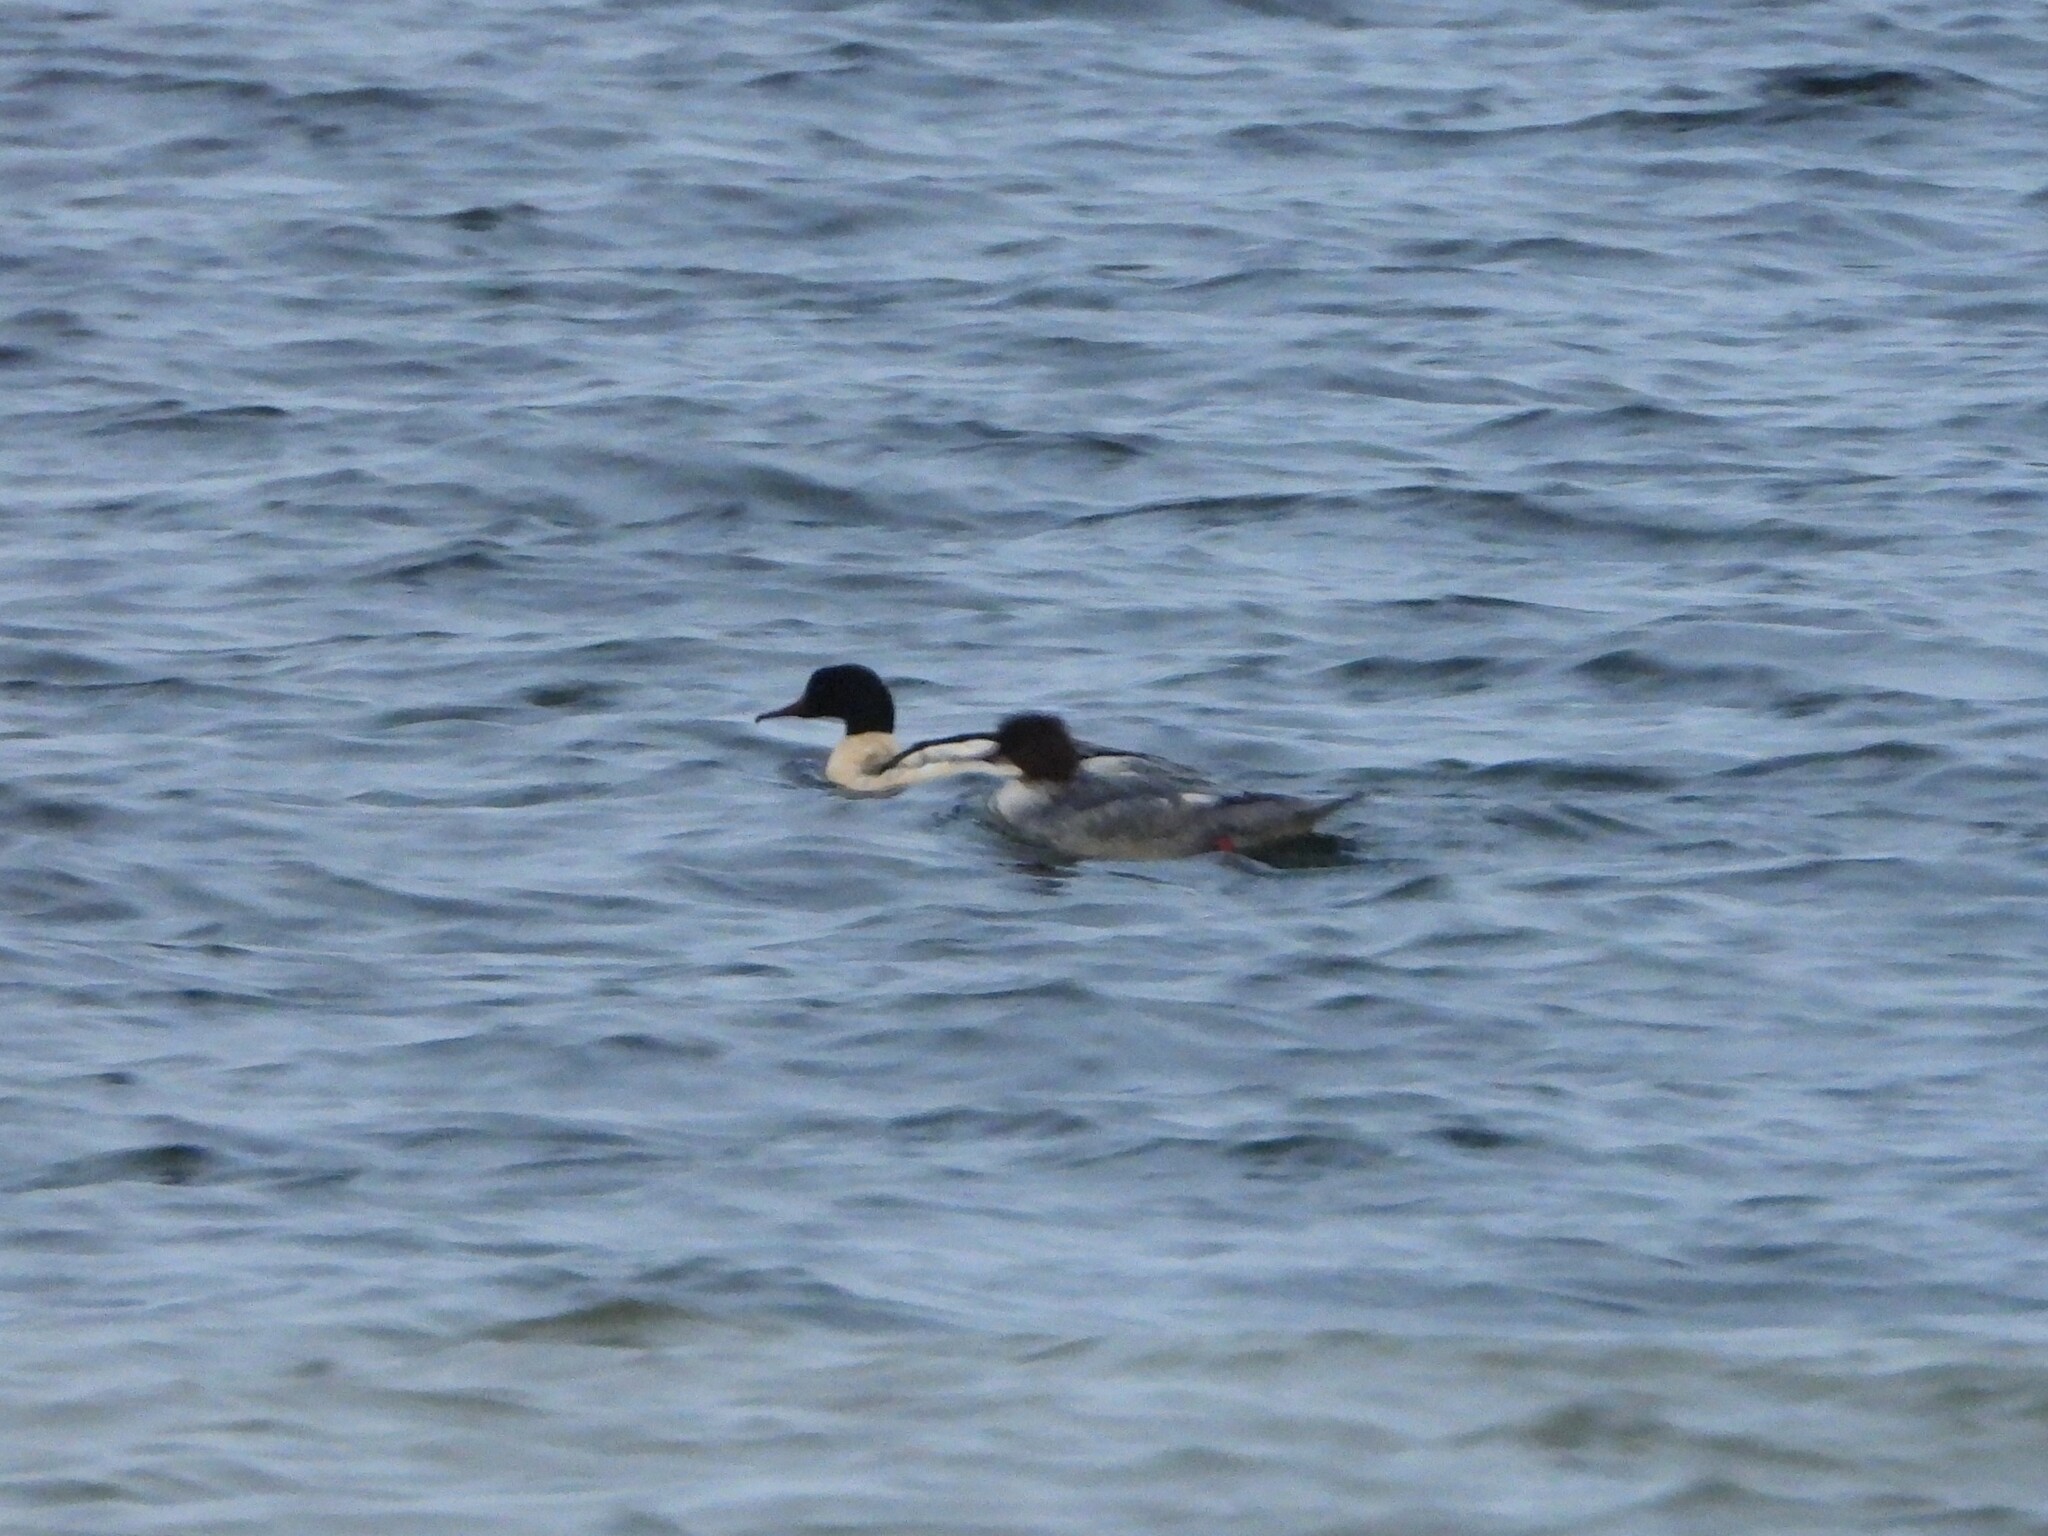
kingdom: Animalia
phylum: Chordata
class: Aves
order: Anseriformes
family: Anatidae
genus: Mergus
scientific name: Mergus merganser
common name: Common merganser
